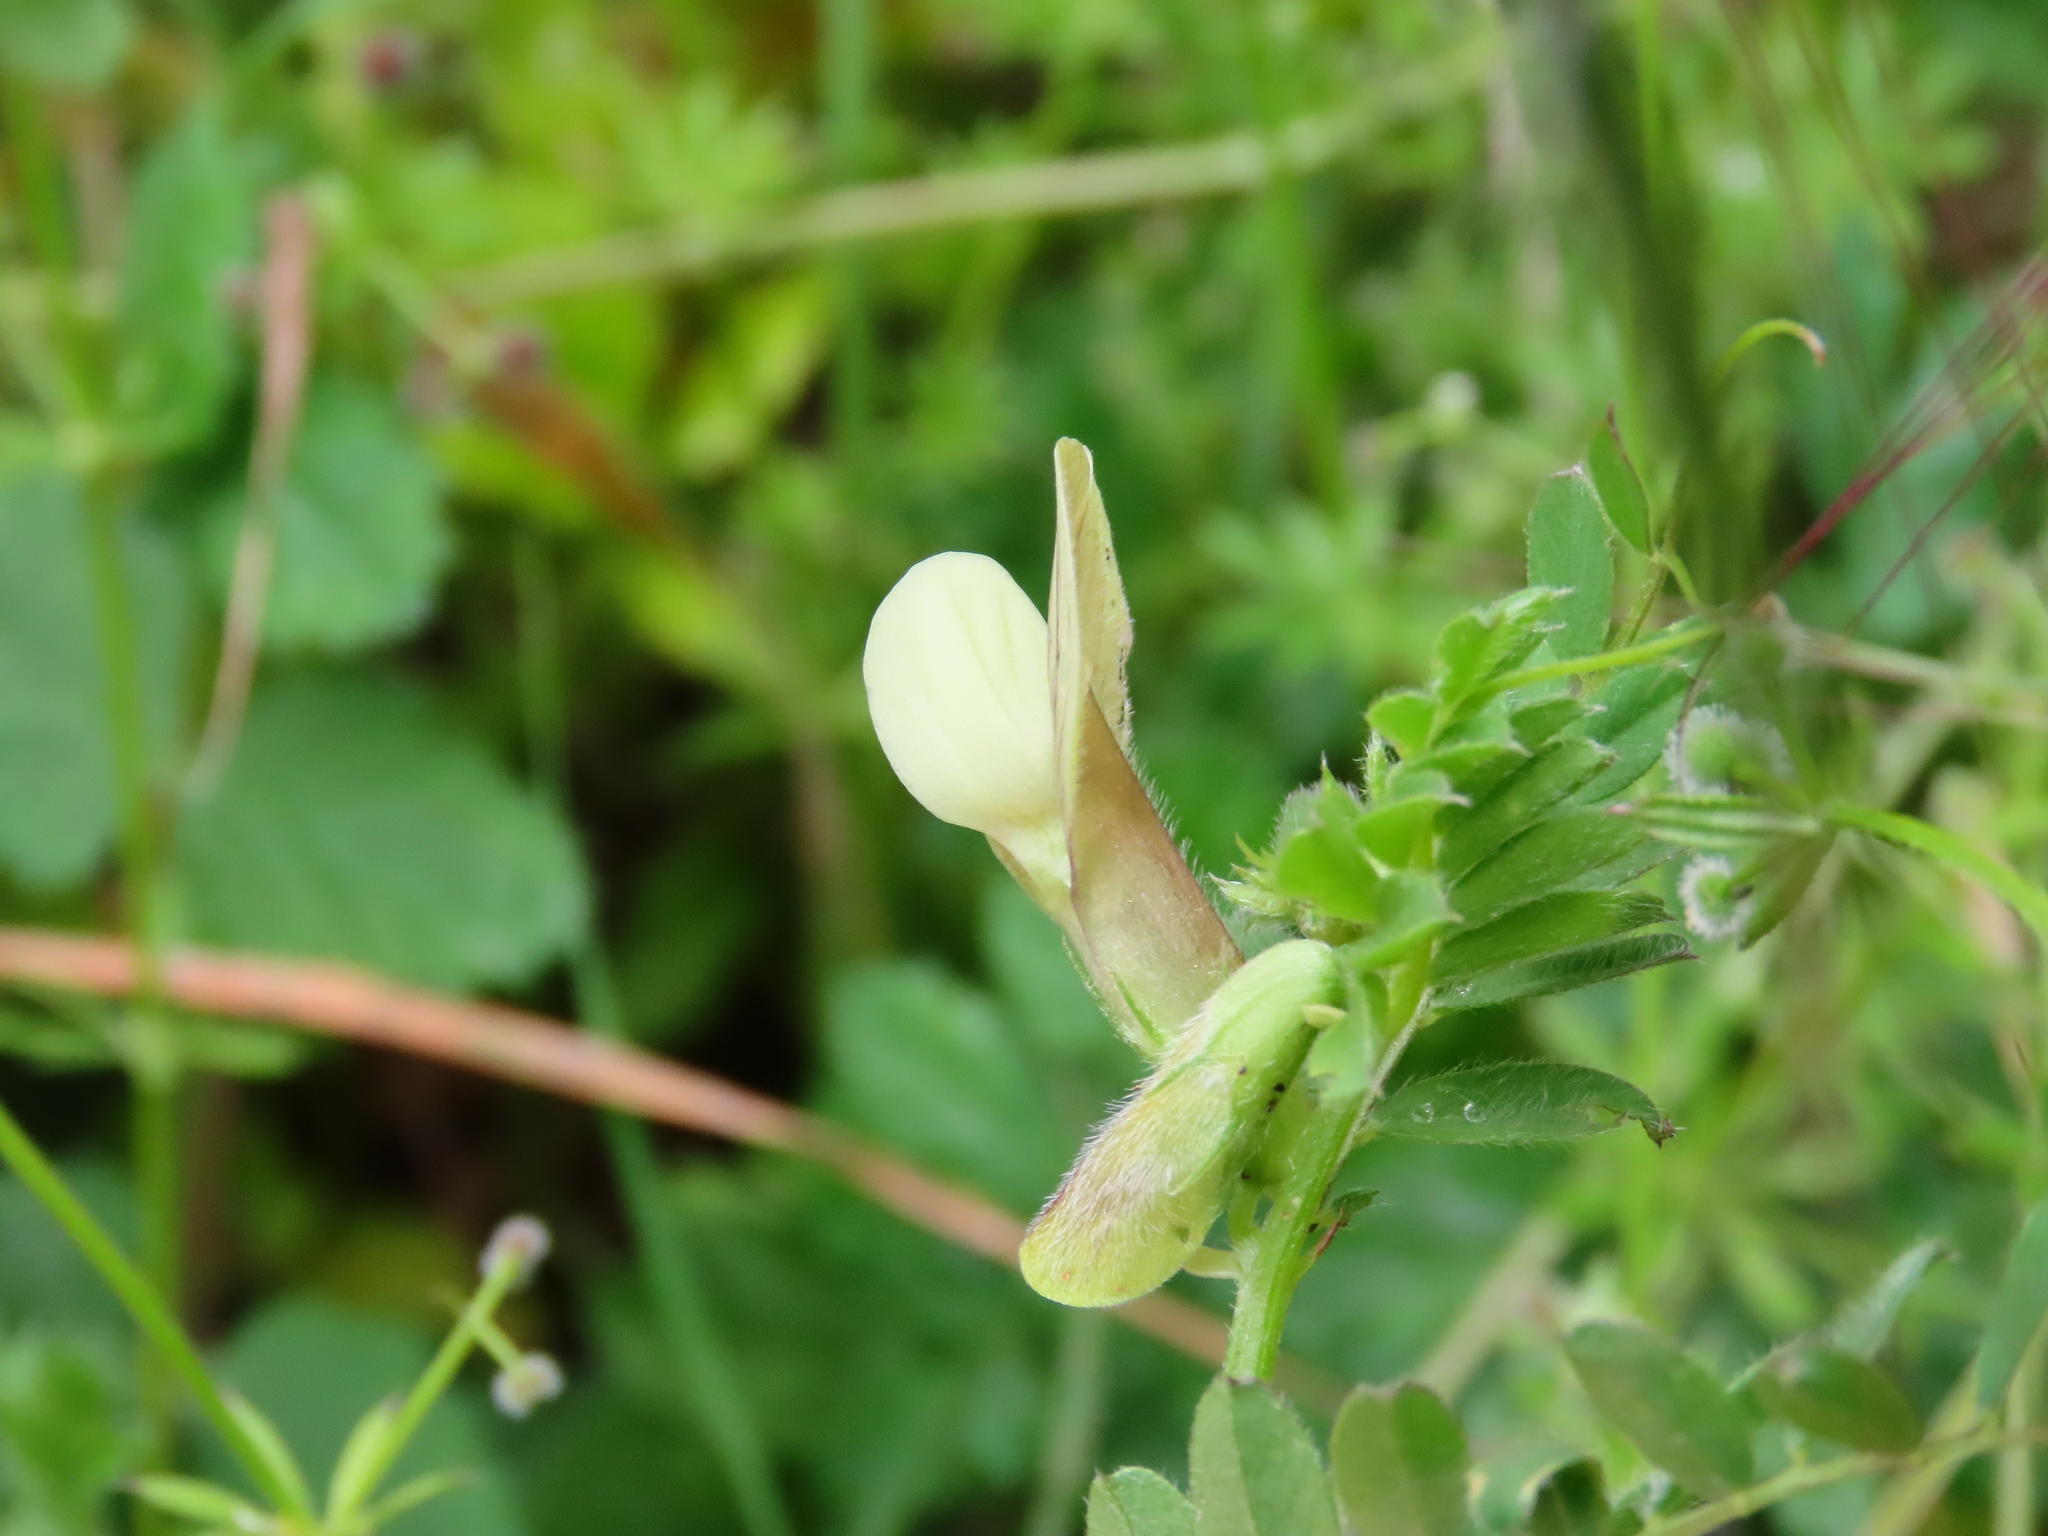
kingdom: Plantae
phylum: Tracheophyta
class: Magnoliopsida
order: Fabales
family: Fabaceae
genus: Vicia
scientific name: Vicia hybrida
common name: Hairy yellow vetch
